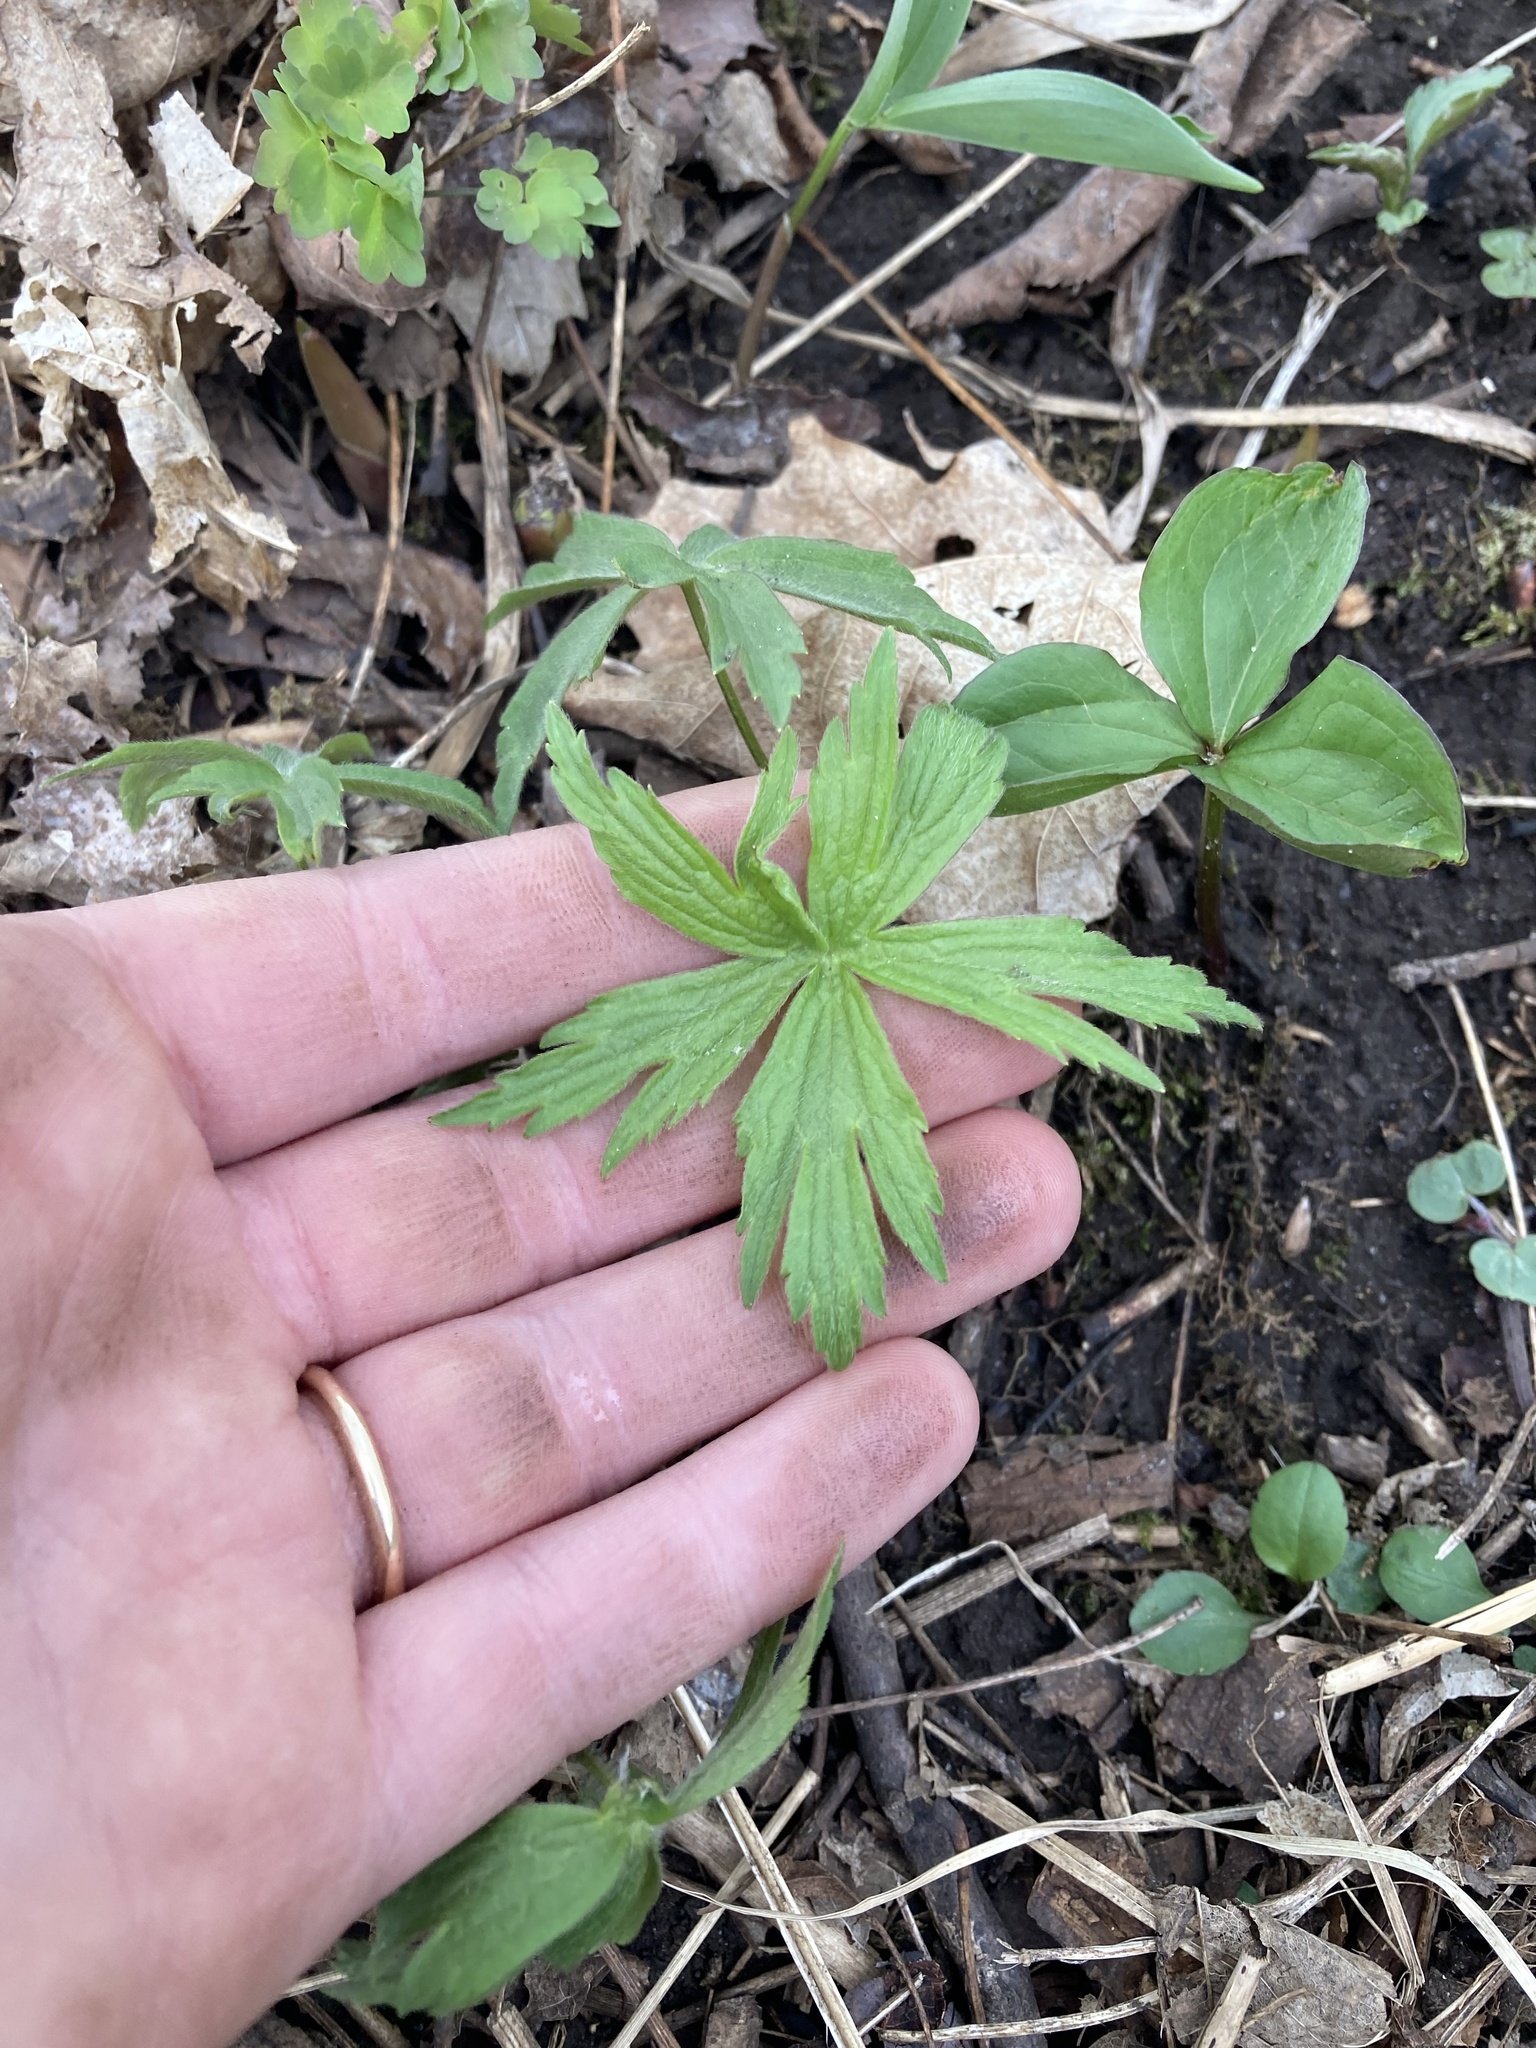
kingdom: Plantae
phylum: Tracheophyta
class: Magnoliopsida
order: Ranunculales
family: Ranunculaceae
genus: Anemonastrum
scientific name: Anemonastrum canadense
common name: Canada anemone
